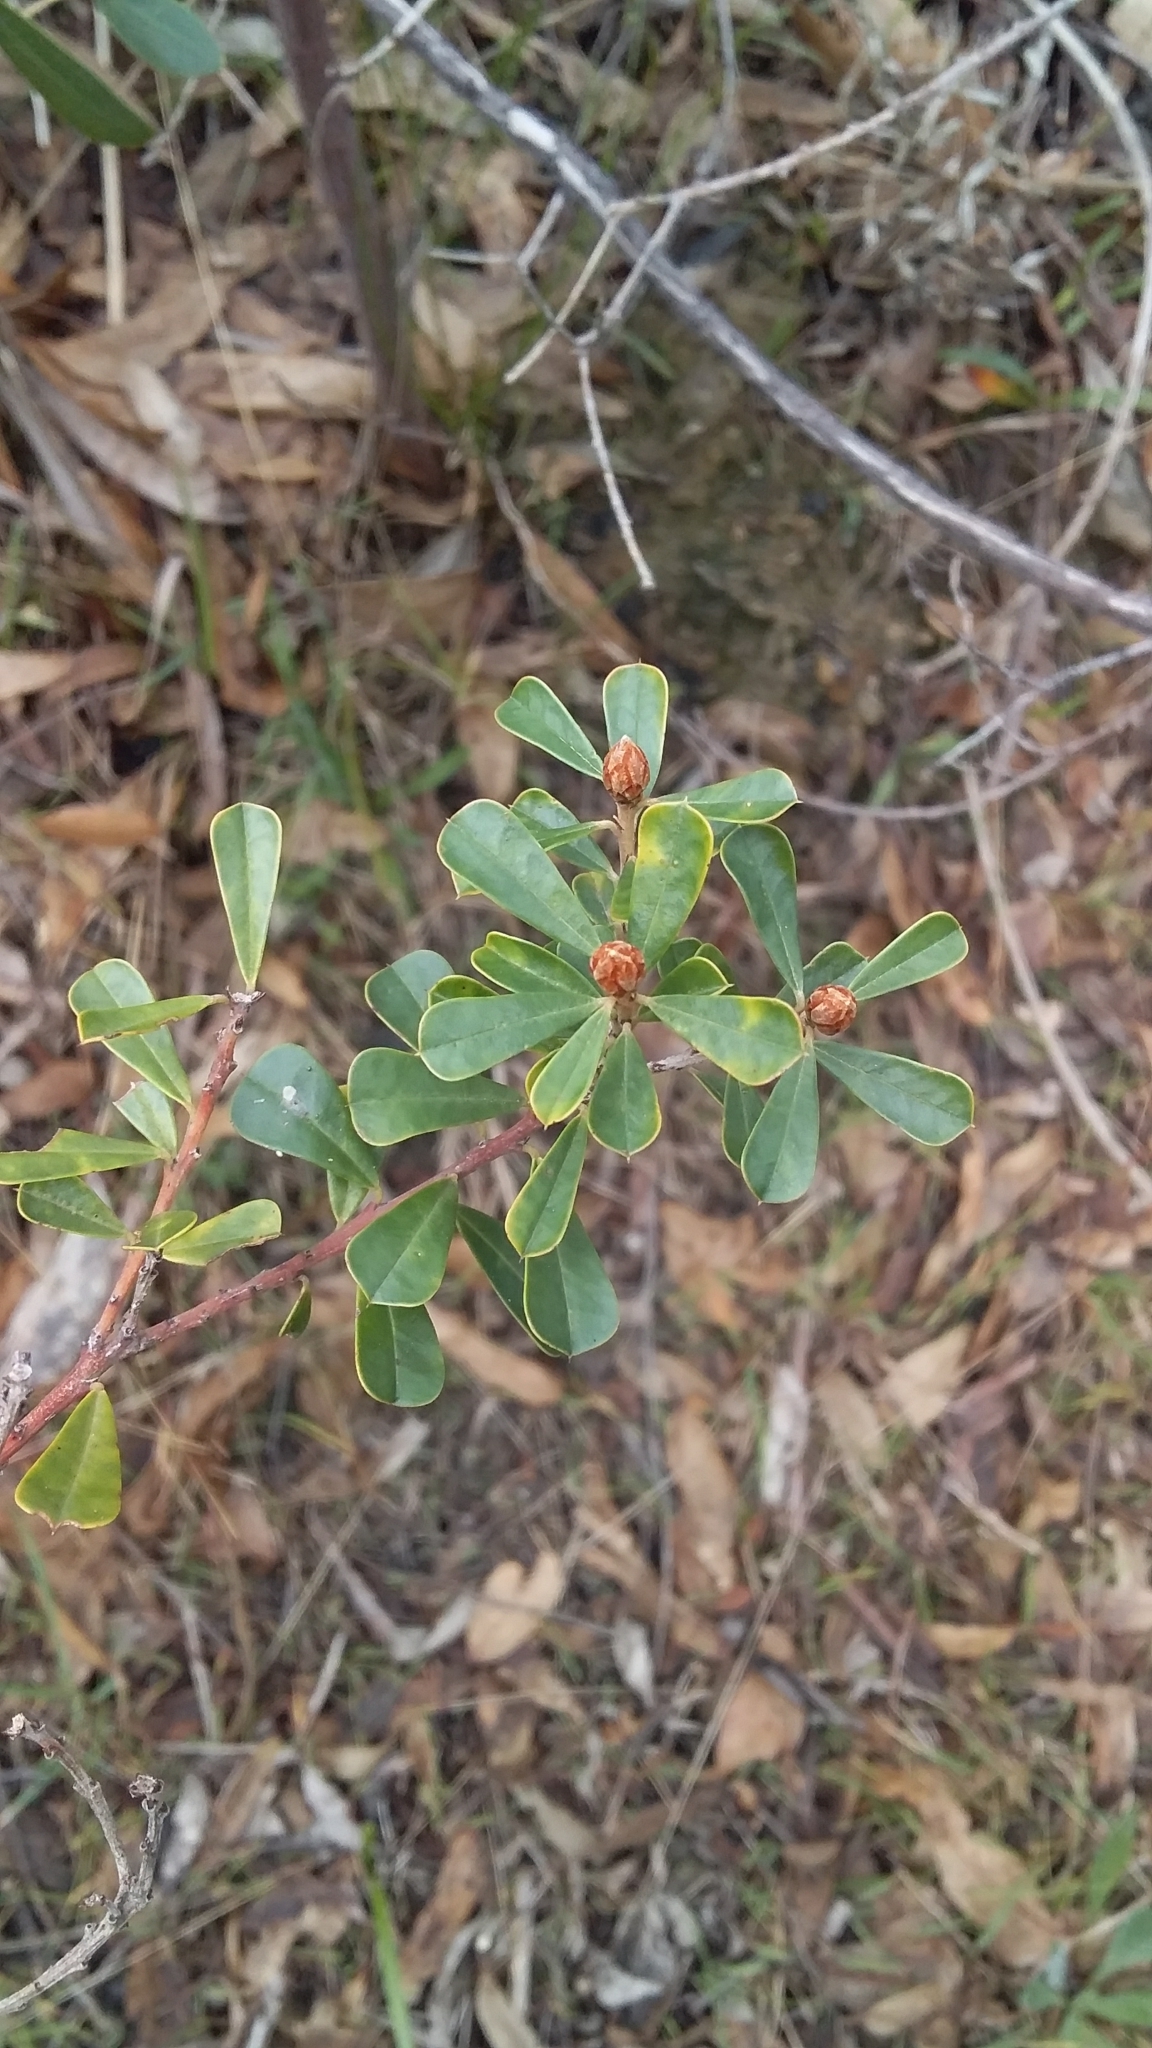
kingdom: Plantae
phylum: Tracheophyta
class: Magnoliopsida
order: Fabales
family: Fabaceae
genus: Pultenaea
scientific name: Pultenaea daphnoides
